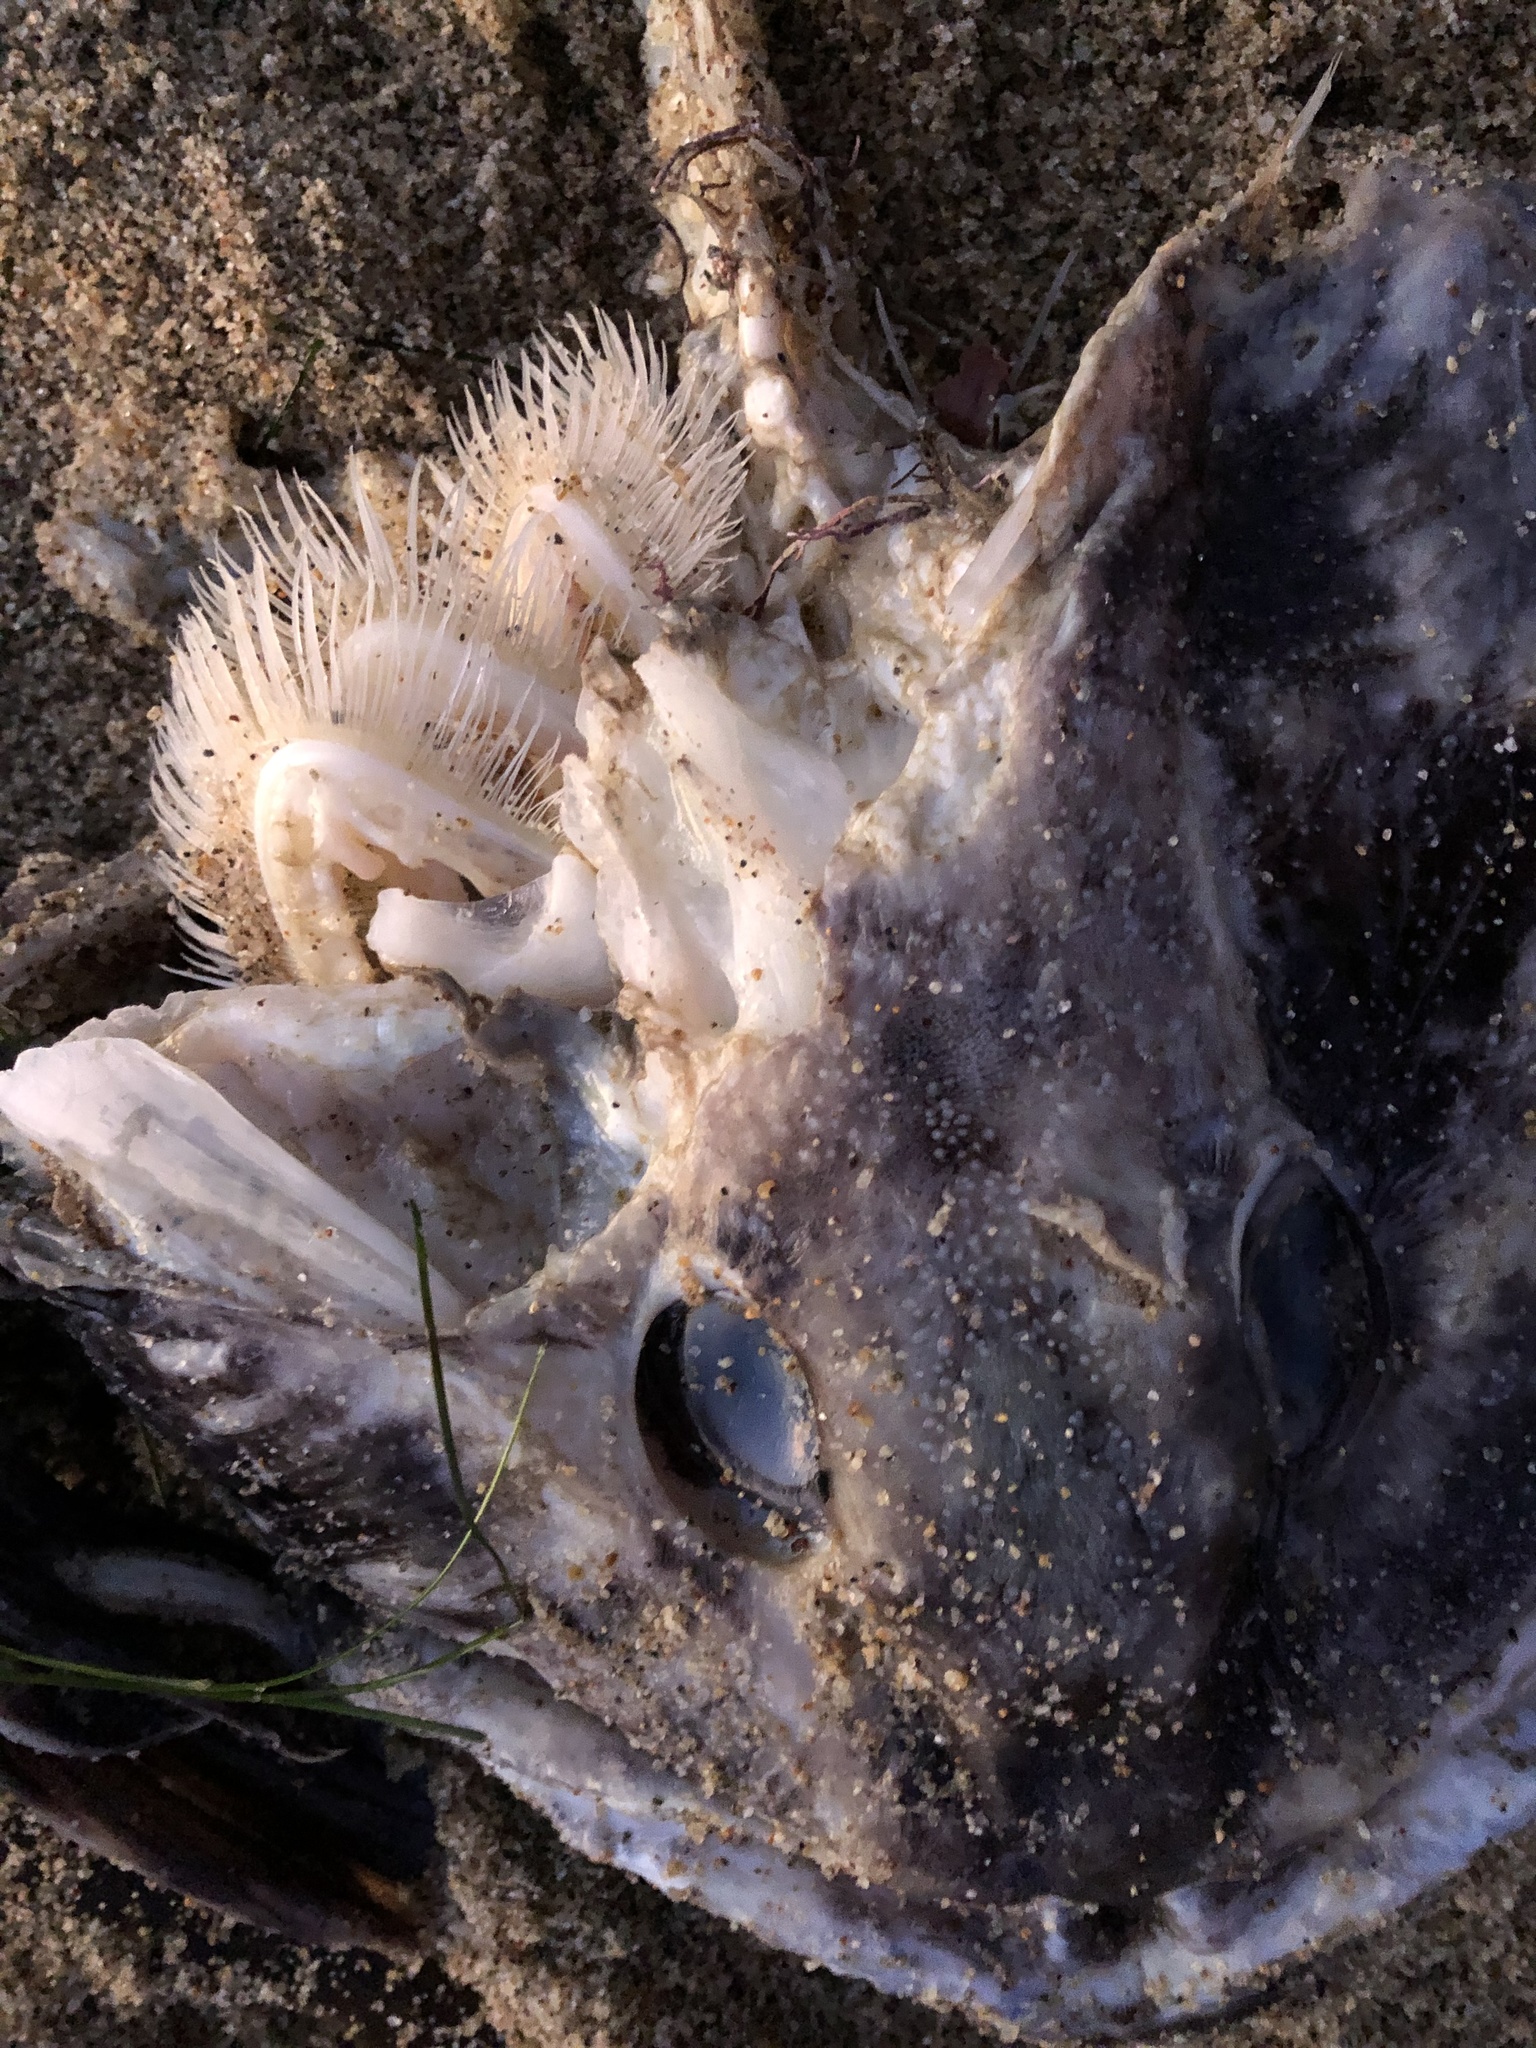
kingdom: Animalia
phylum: Chordata
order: Scorpaeniformes
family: Hexagrammidae
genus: Ophiodon
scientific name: Ophiodon elongatus
